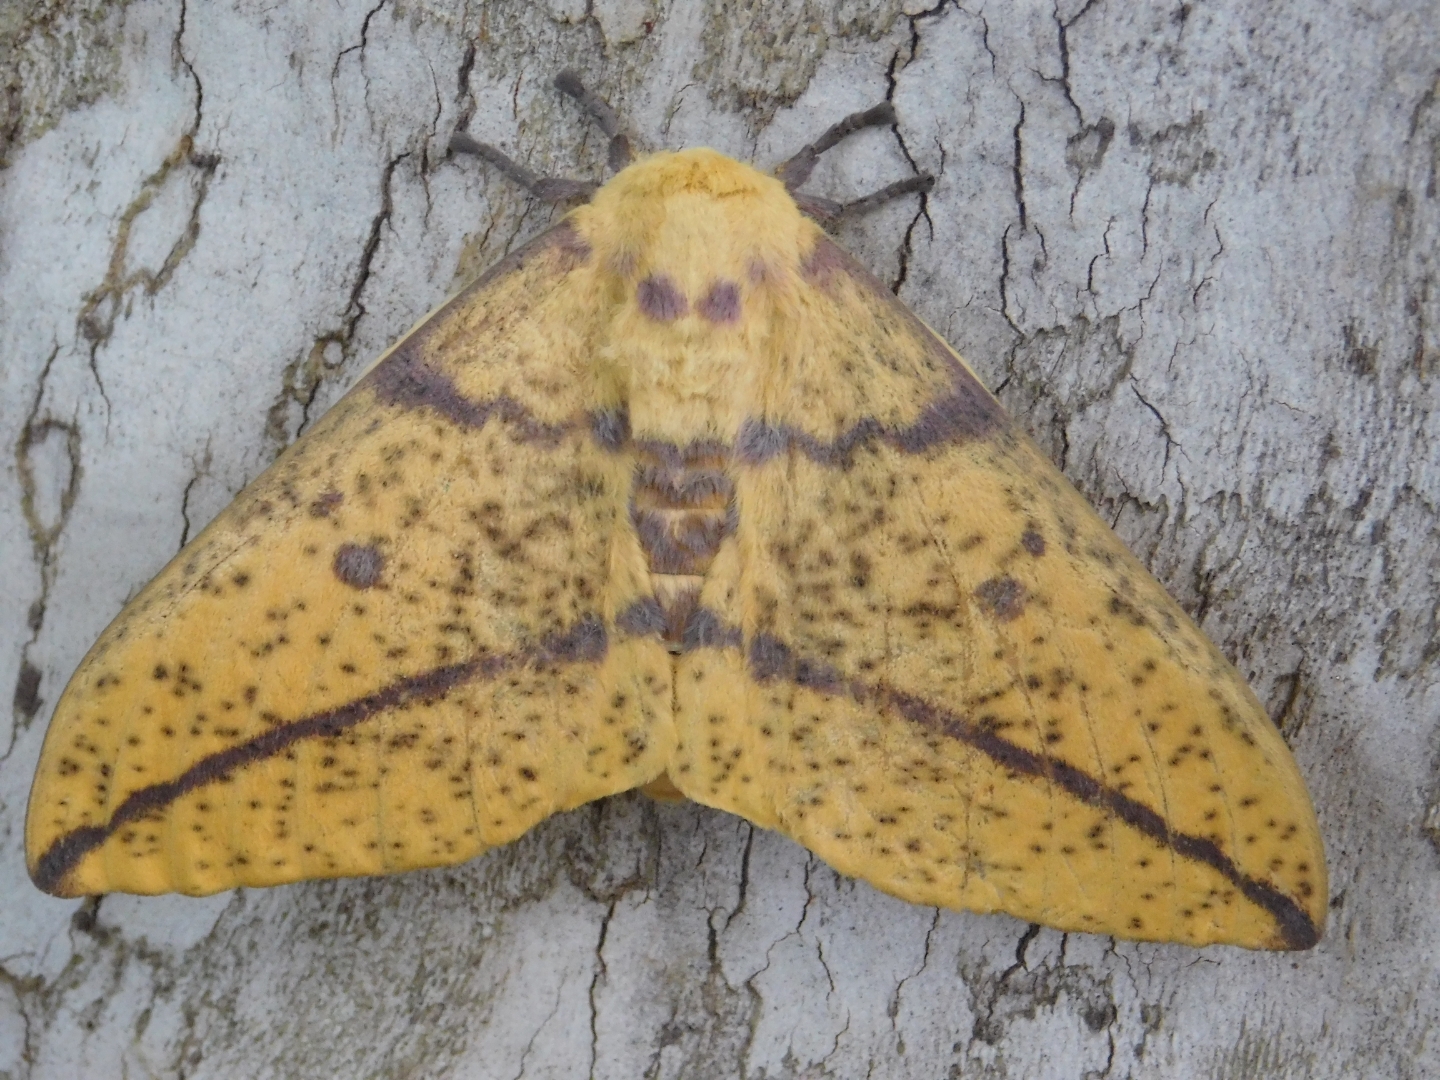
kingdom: Animalia
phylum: Arthropoda
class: Insecta
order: Lepidoptera
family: Saturniidae
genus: Eacles
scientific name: Eacles imperialis
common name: Imperial moth
